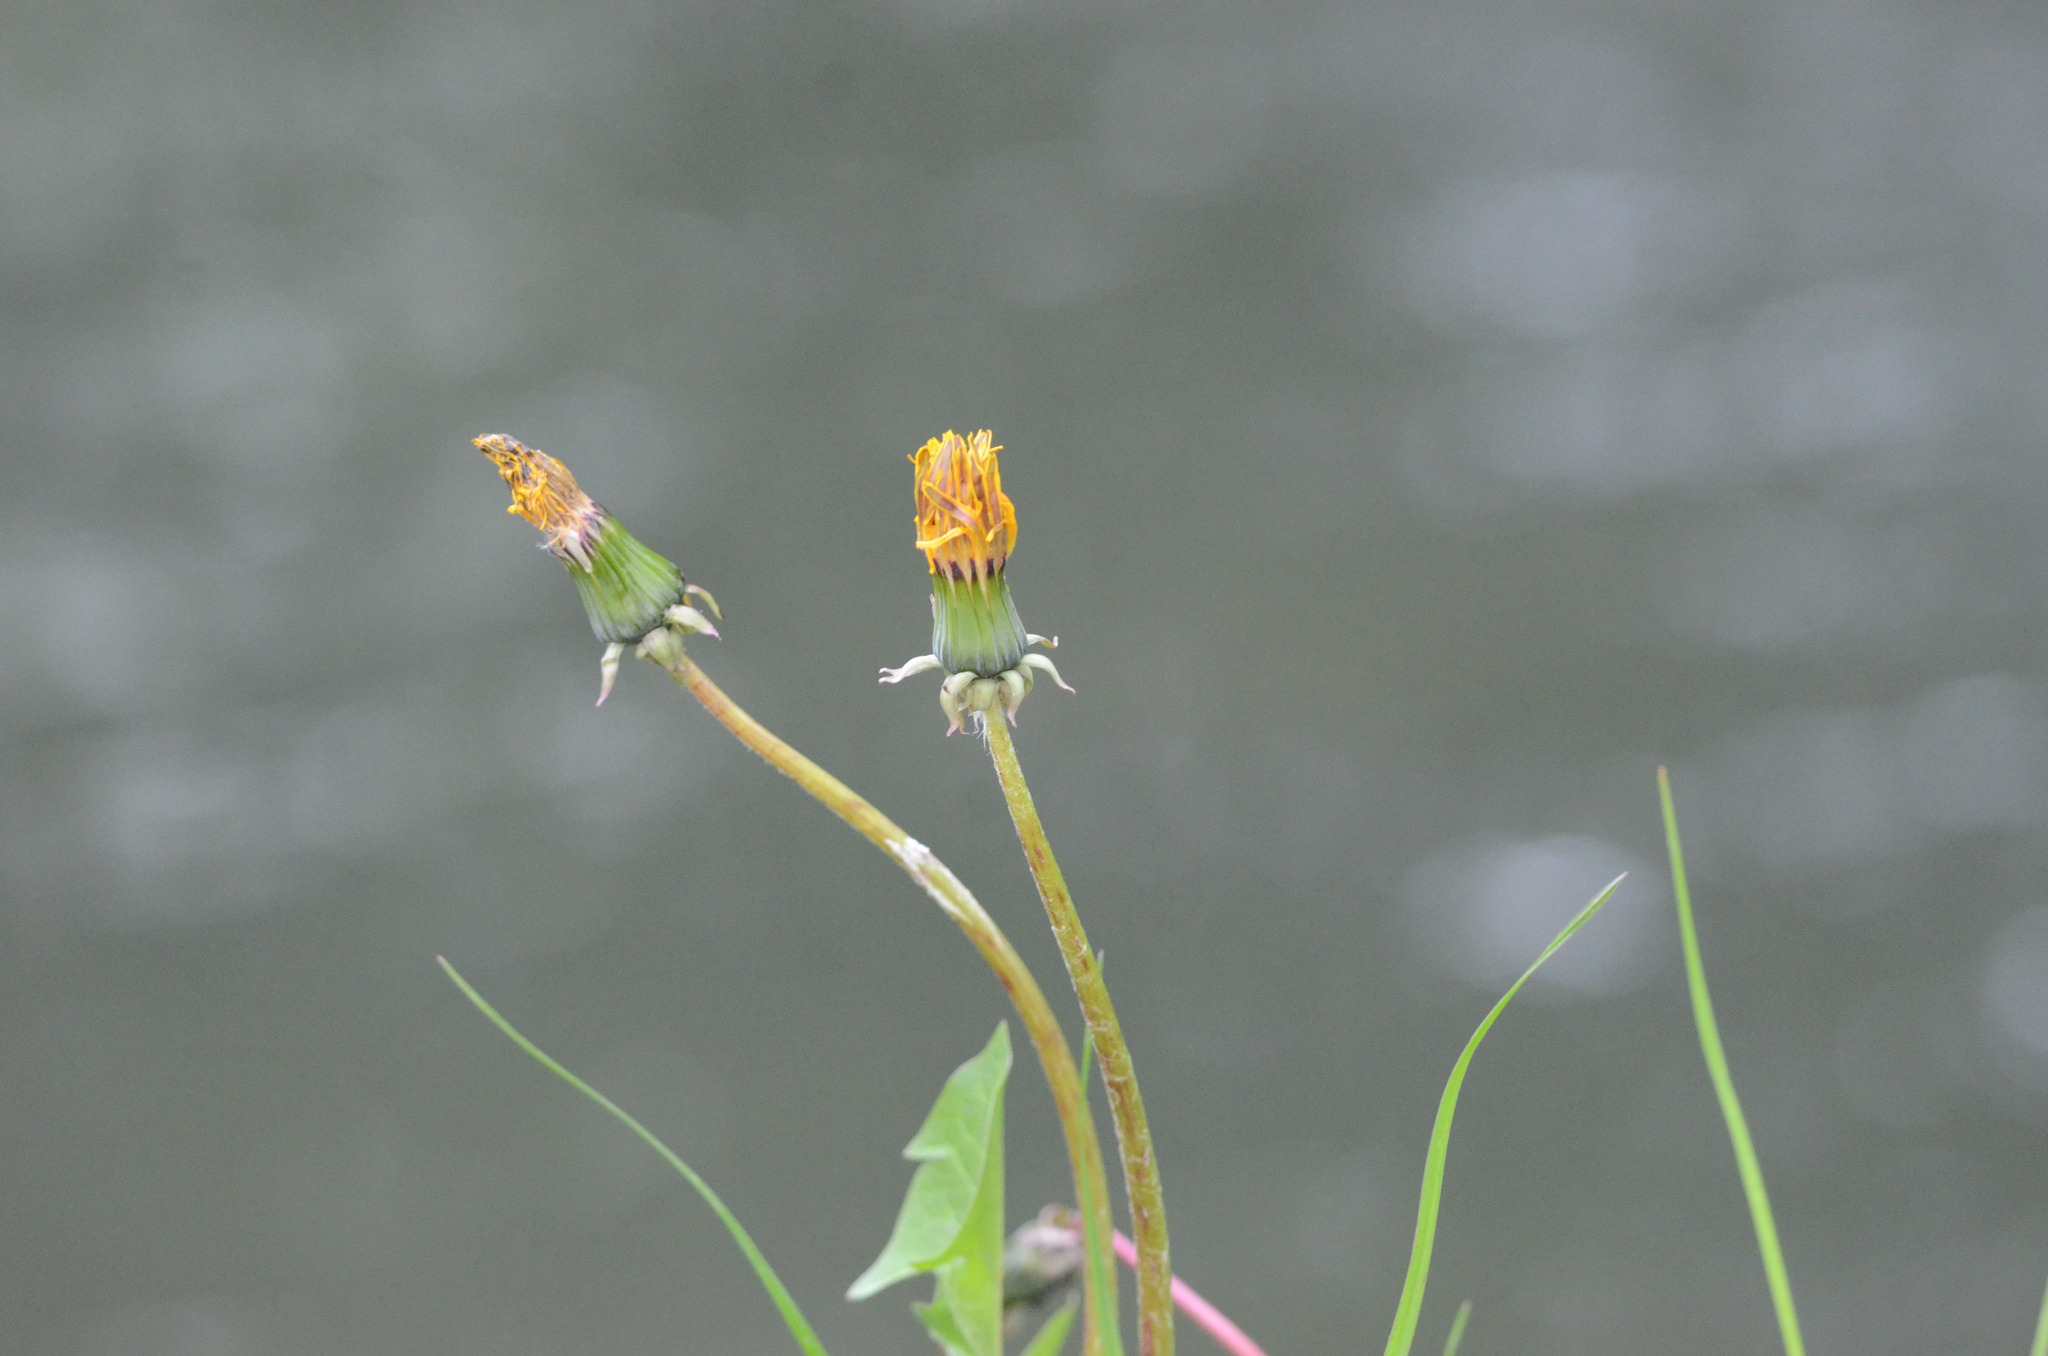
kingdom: Plantae
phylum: Tracheophyta
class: Magnoliopsida
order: Asterales
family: Asteraceae
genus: Taraxacum
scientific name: Taraxacum
